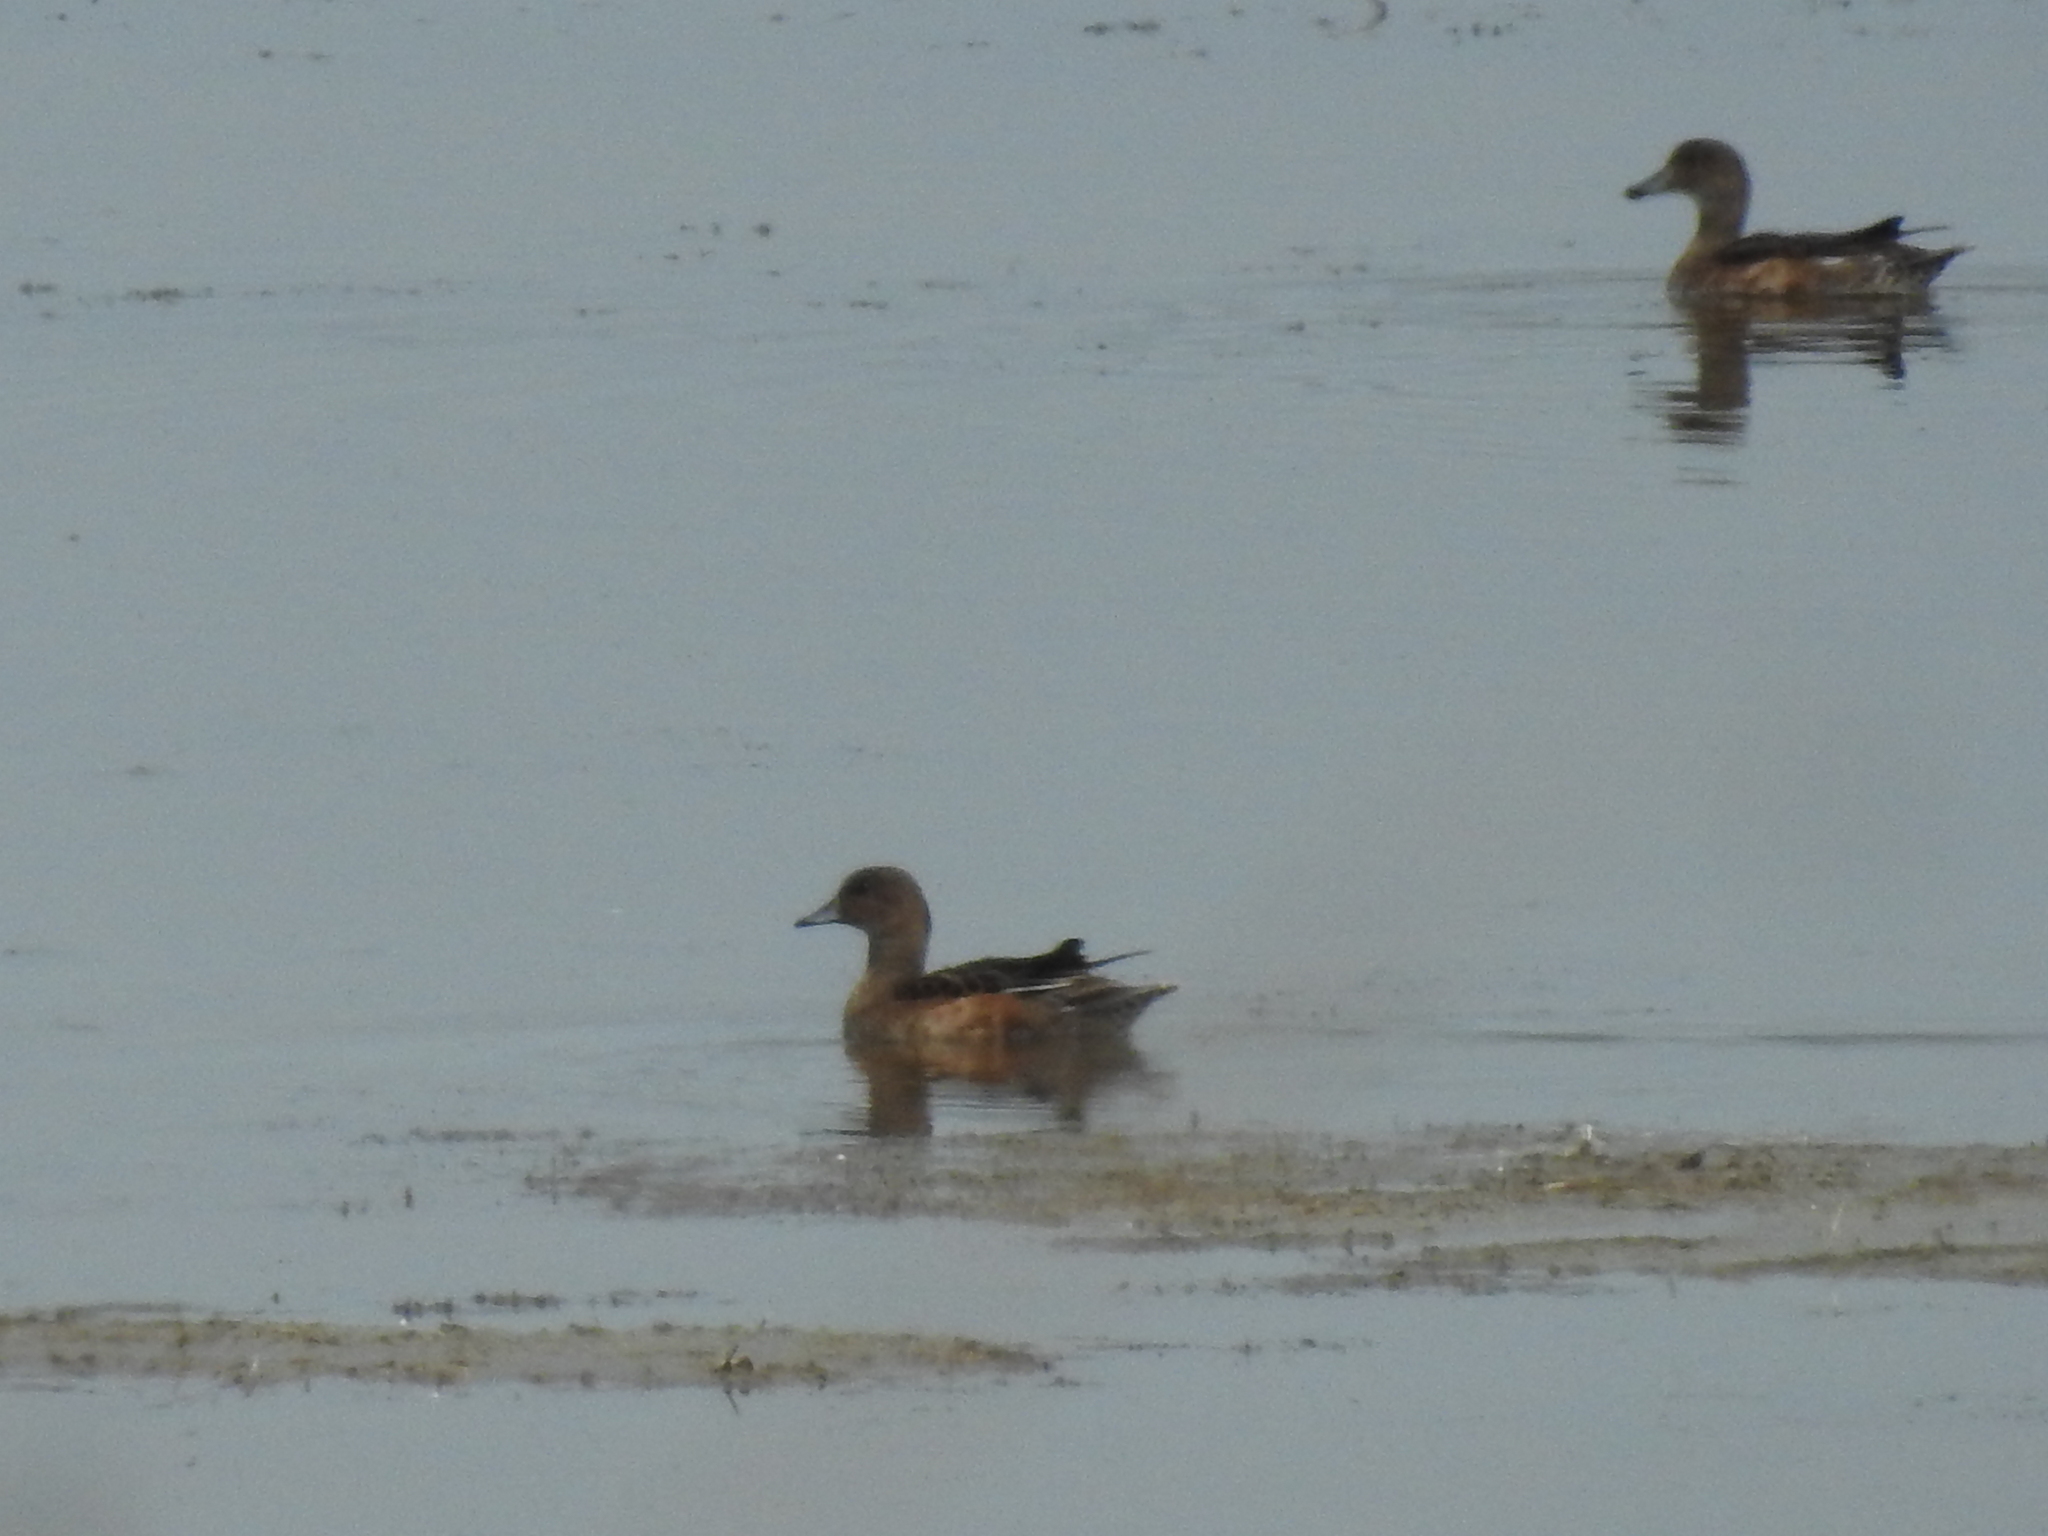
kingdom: Animalia
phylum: Chordata
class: Aves
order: Anseriformes
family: Anatidae
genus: Mareca
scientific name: Mareca penelope
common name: Eurasian wigeon
